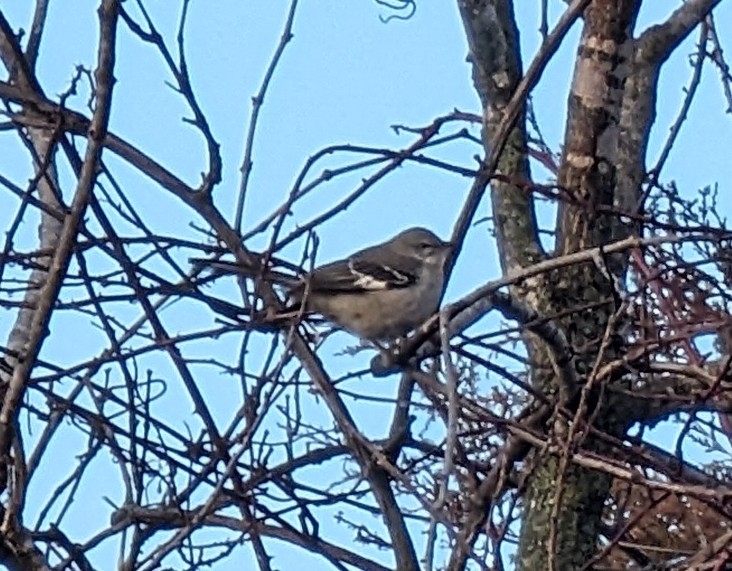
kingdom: Animalia
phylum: Chordata
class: Aves
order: Passeriformes
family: Mimidae
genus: Mimus
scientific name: Mimus polyglottos
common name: Northern mockingbird
